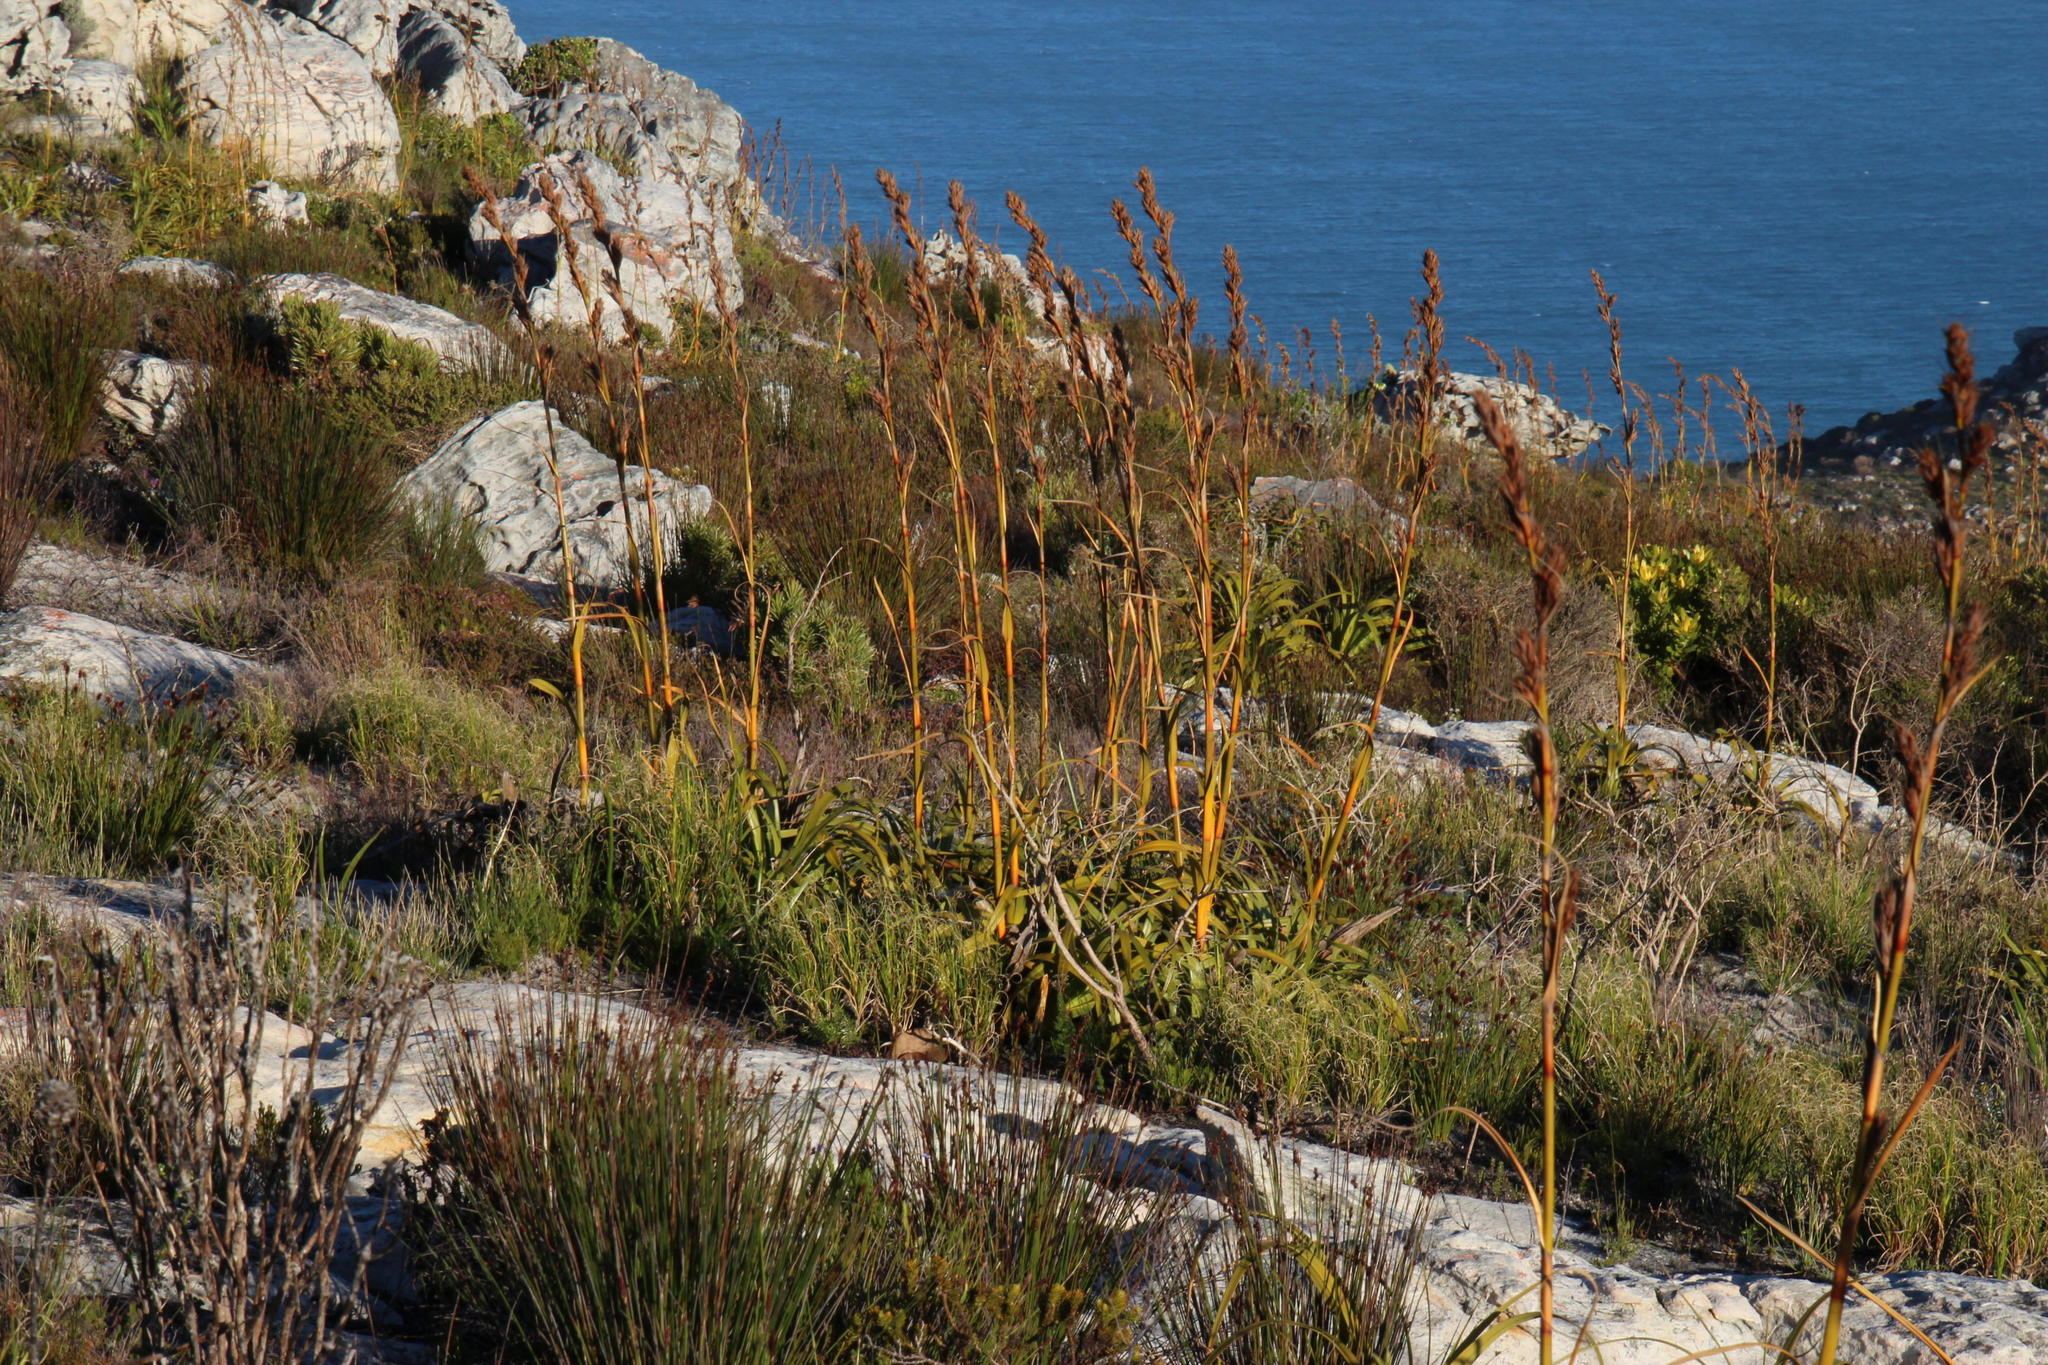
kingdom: Plantae
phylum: Tracheophyta
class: Liliopsida
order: Poales
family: Cyperaceae
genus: Tetraria
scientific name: Tetraria thermalis
